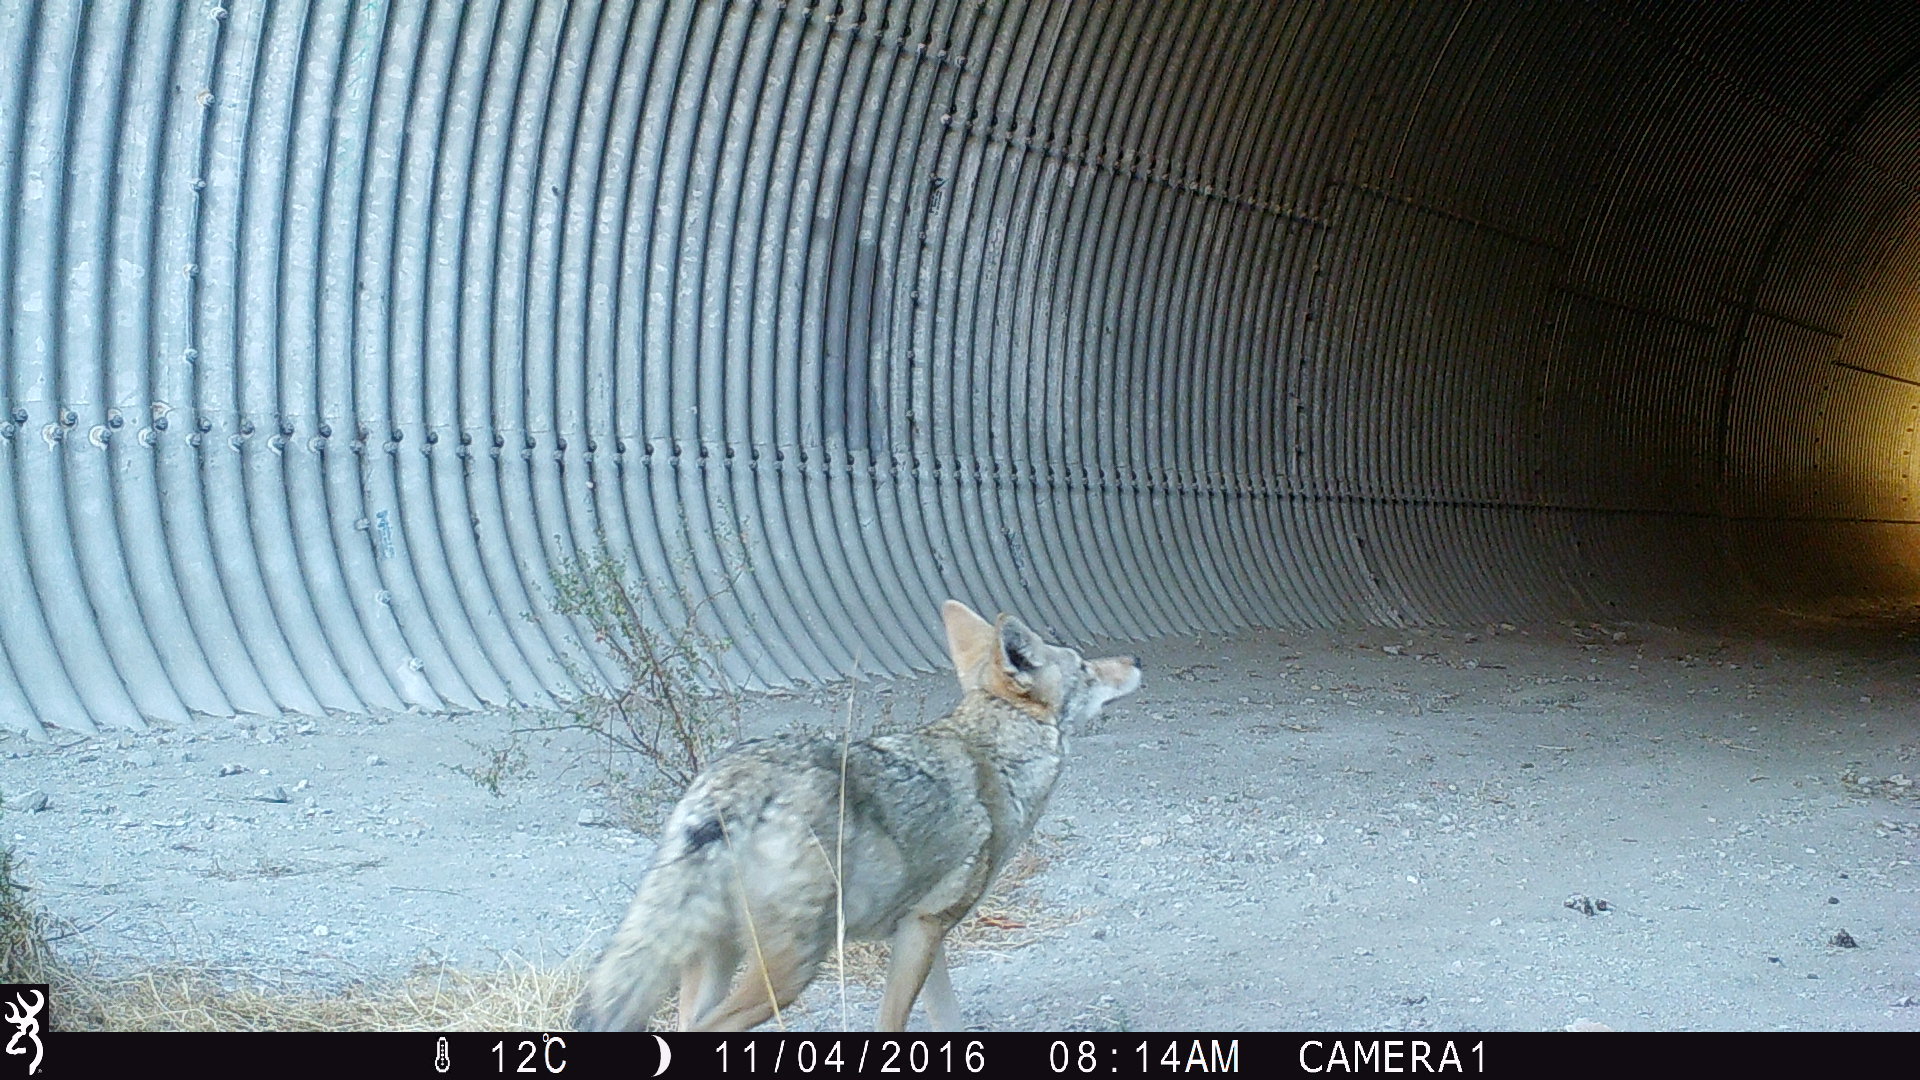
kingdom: Animalia
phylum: Chordata
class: Mammalia
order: Carnivora
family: Canidae
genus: Canis
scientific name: Canis latrans
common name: Coyote
